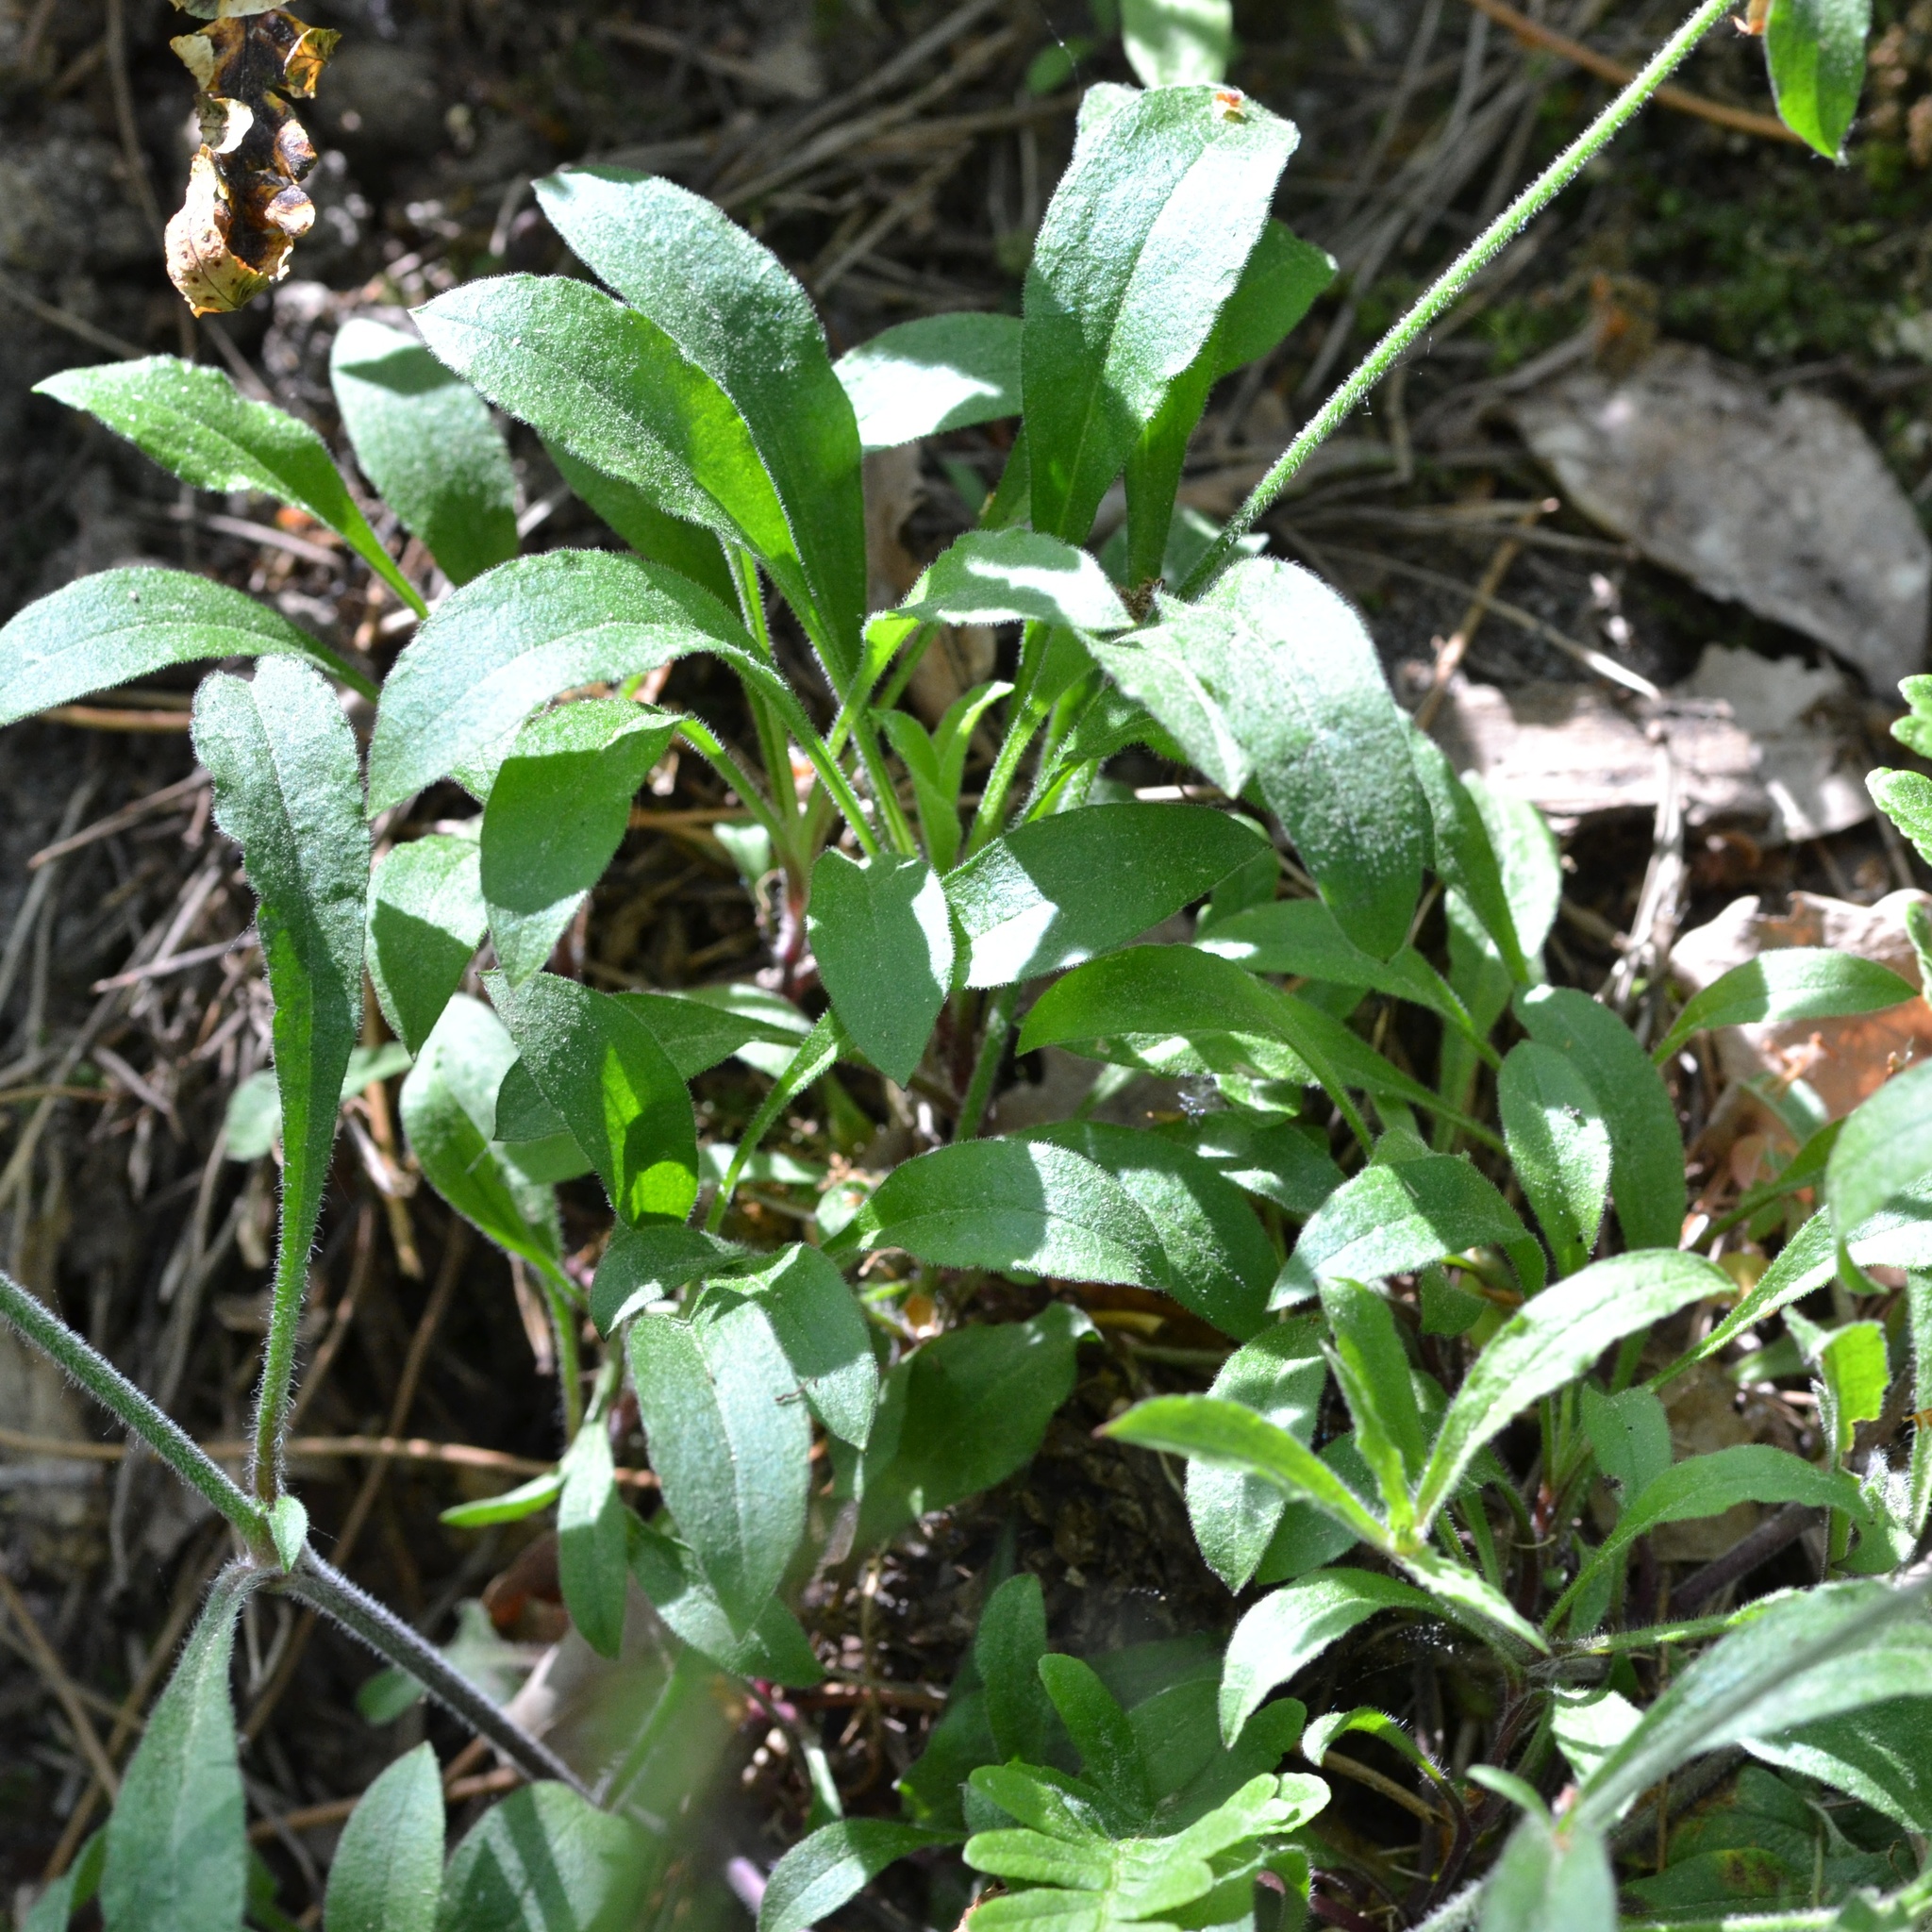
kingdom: Plantae
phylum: Tracheophyta
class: Magnoliopsida
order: Caryophyllales
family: Caryophyllaceae
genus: Silene
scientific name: Silene nutans
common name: Nottingham catchfly
